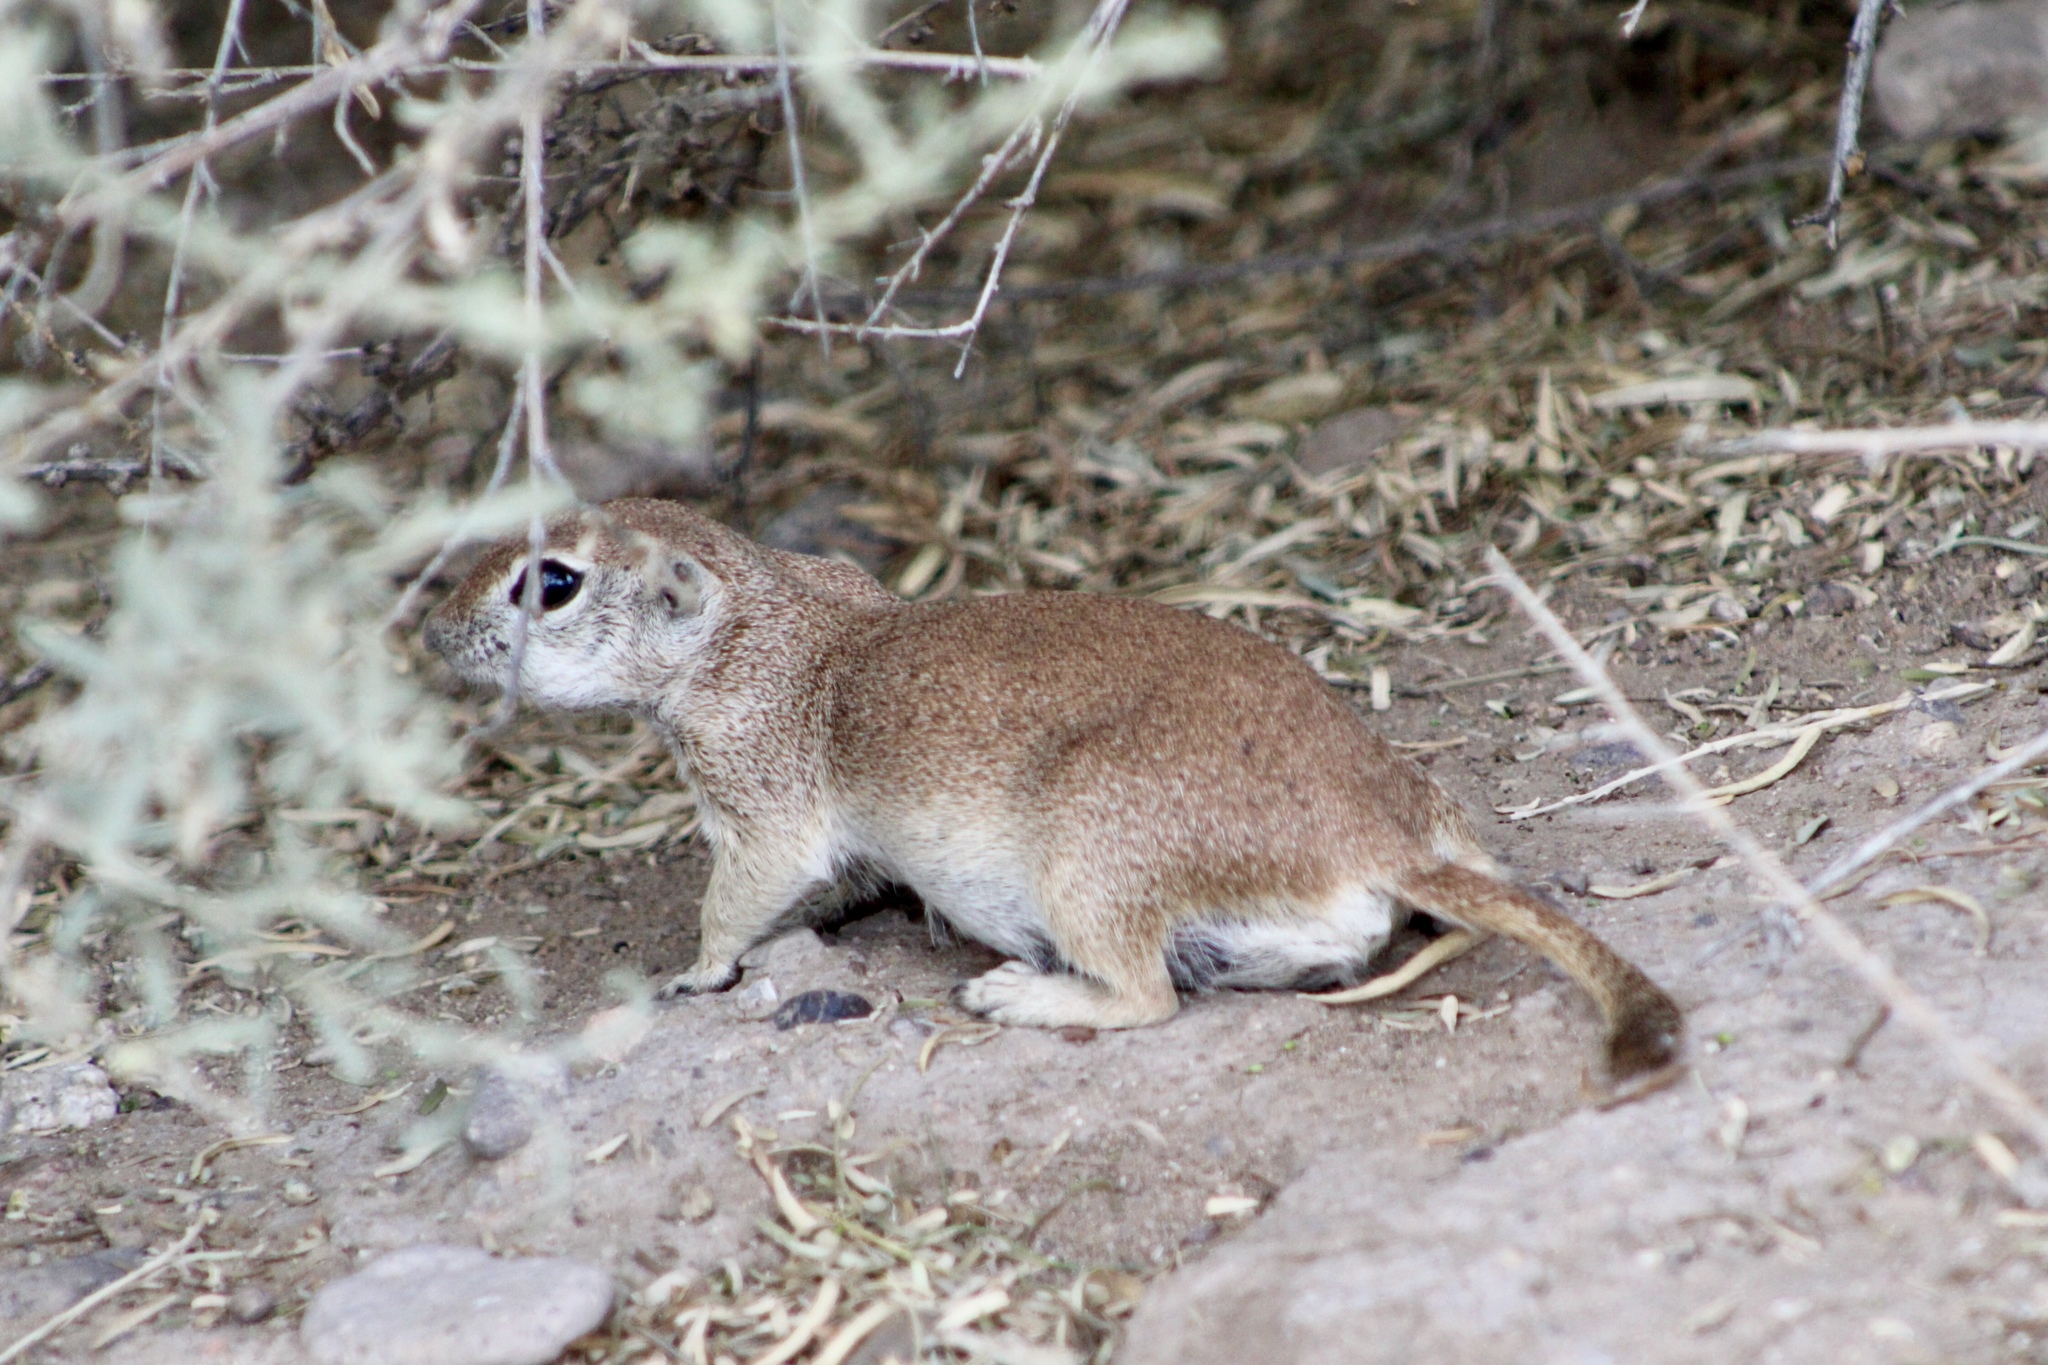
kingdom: Animalia
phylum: Chordata
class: Mammalia
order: Rodentia
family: Sciuridae
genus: Xerospermophilus
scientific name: Xerospermophilus tereticaudus
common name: Round-tailed ground squirrel
